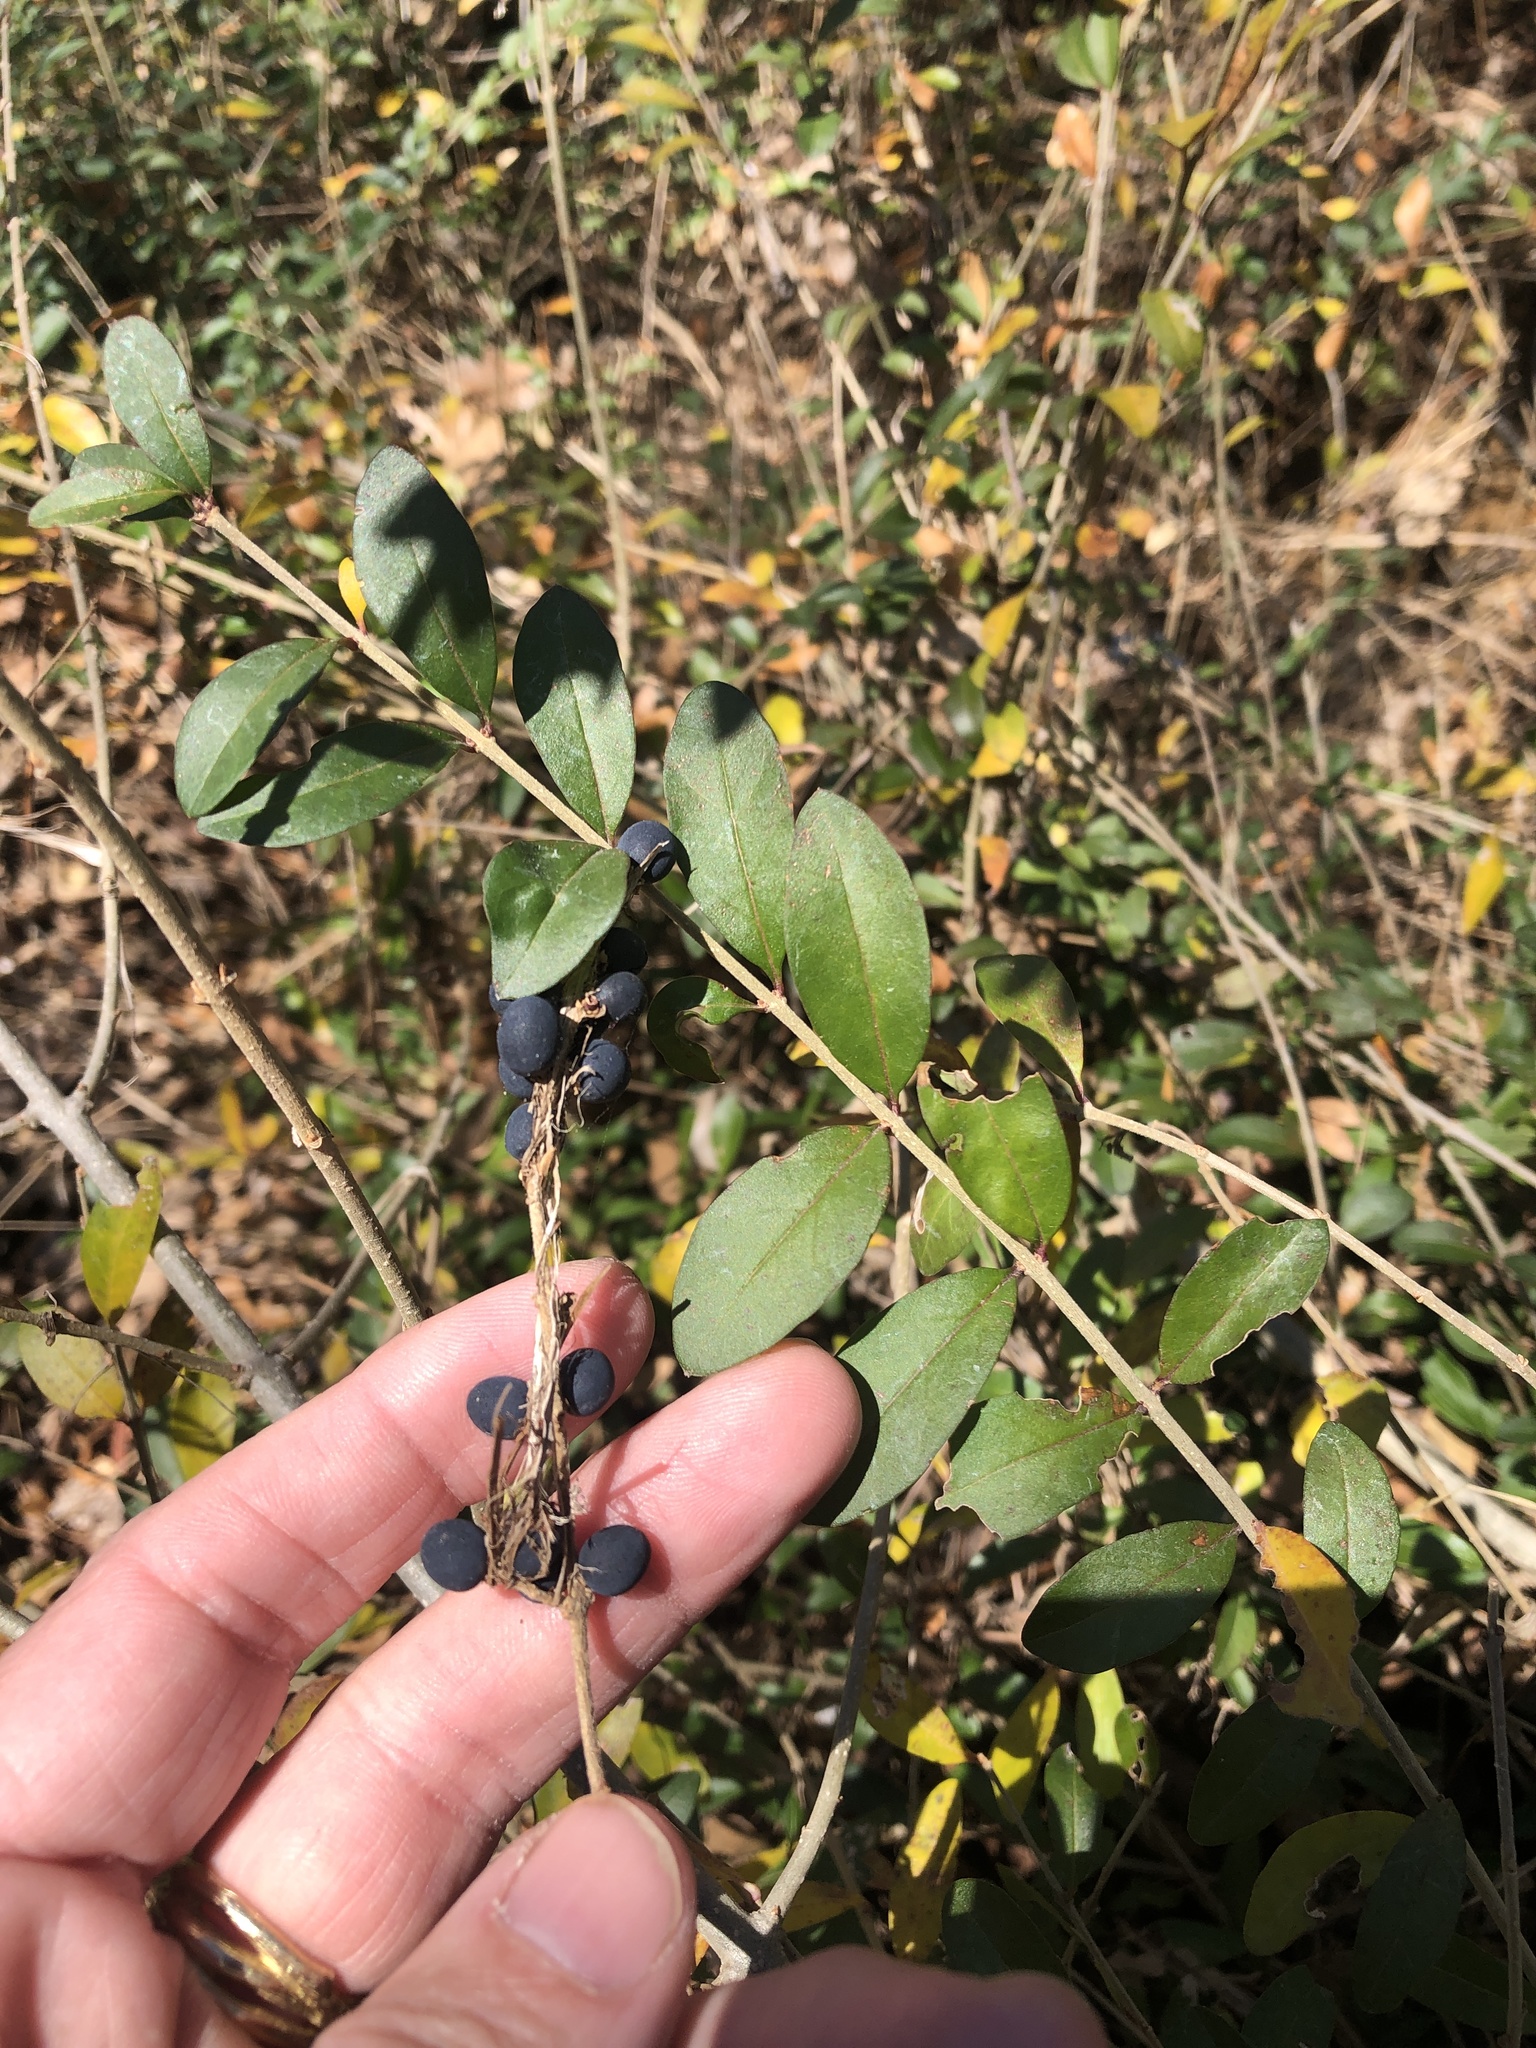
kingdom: Plantae
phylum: Tracheophyta
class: Magnoliopsida
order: Lamiales
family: Oleaceae
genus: Ligustrum
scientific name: Ligustrum quihoui
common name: Waxyleaf privet
